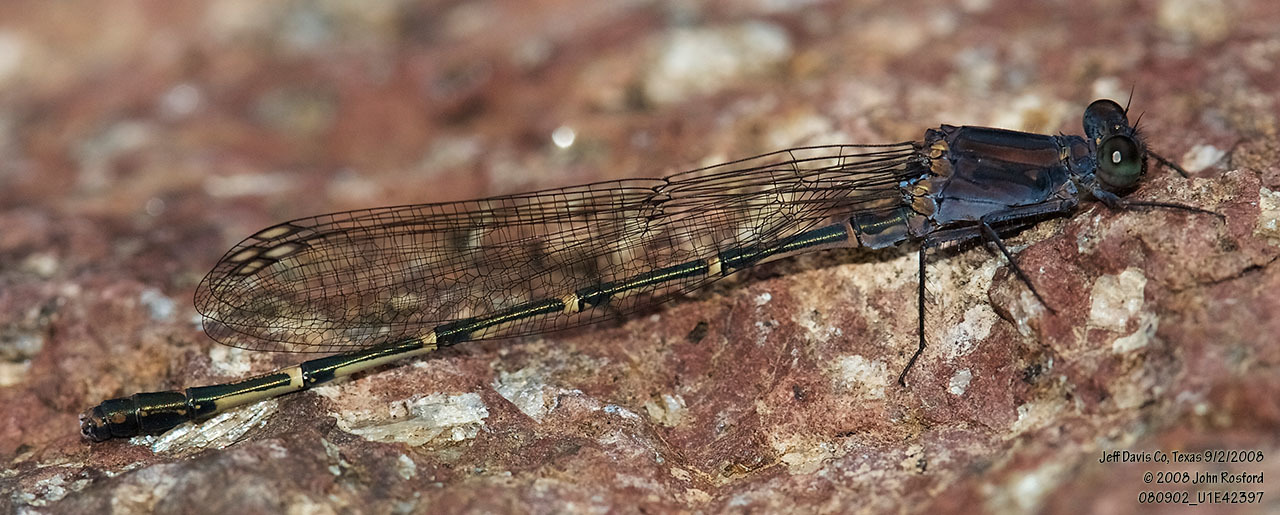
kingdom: Animalia
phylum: Arthropoda
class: Insecta
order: Odonata
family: Coenagrionidae
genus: Argia
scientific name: Argia lugens
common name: Sooty dancer
